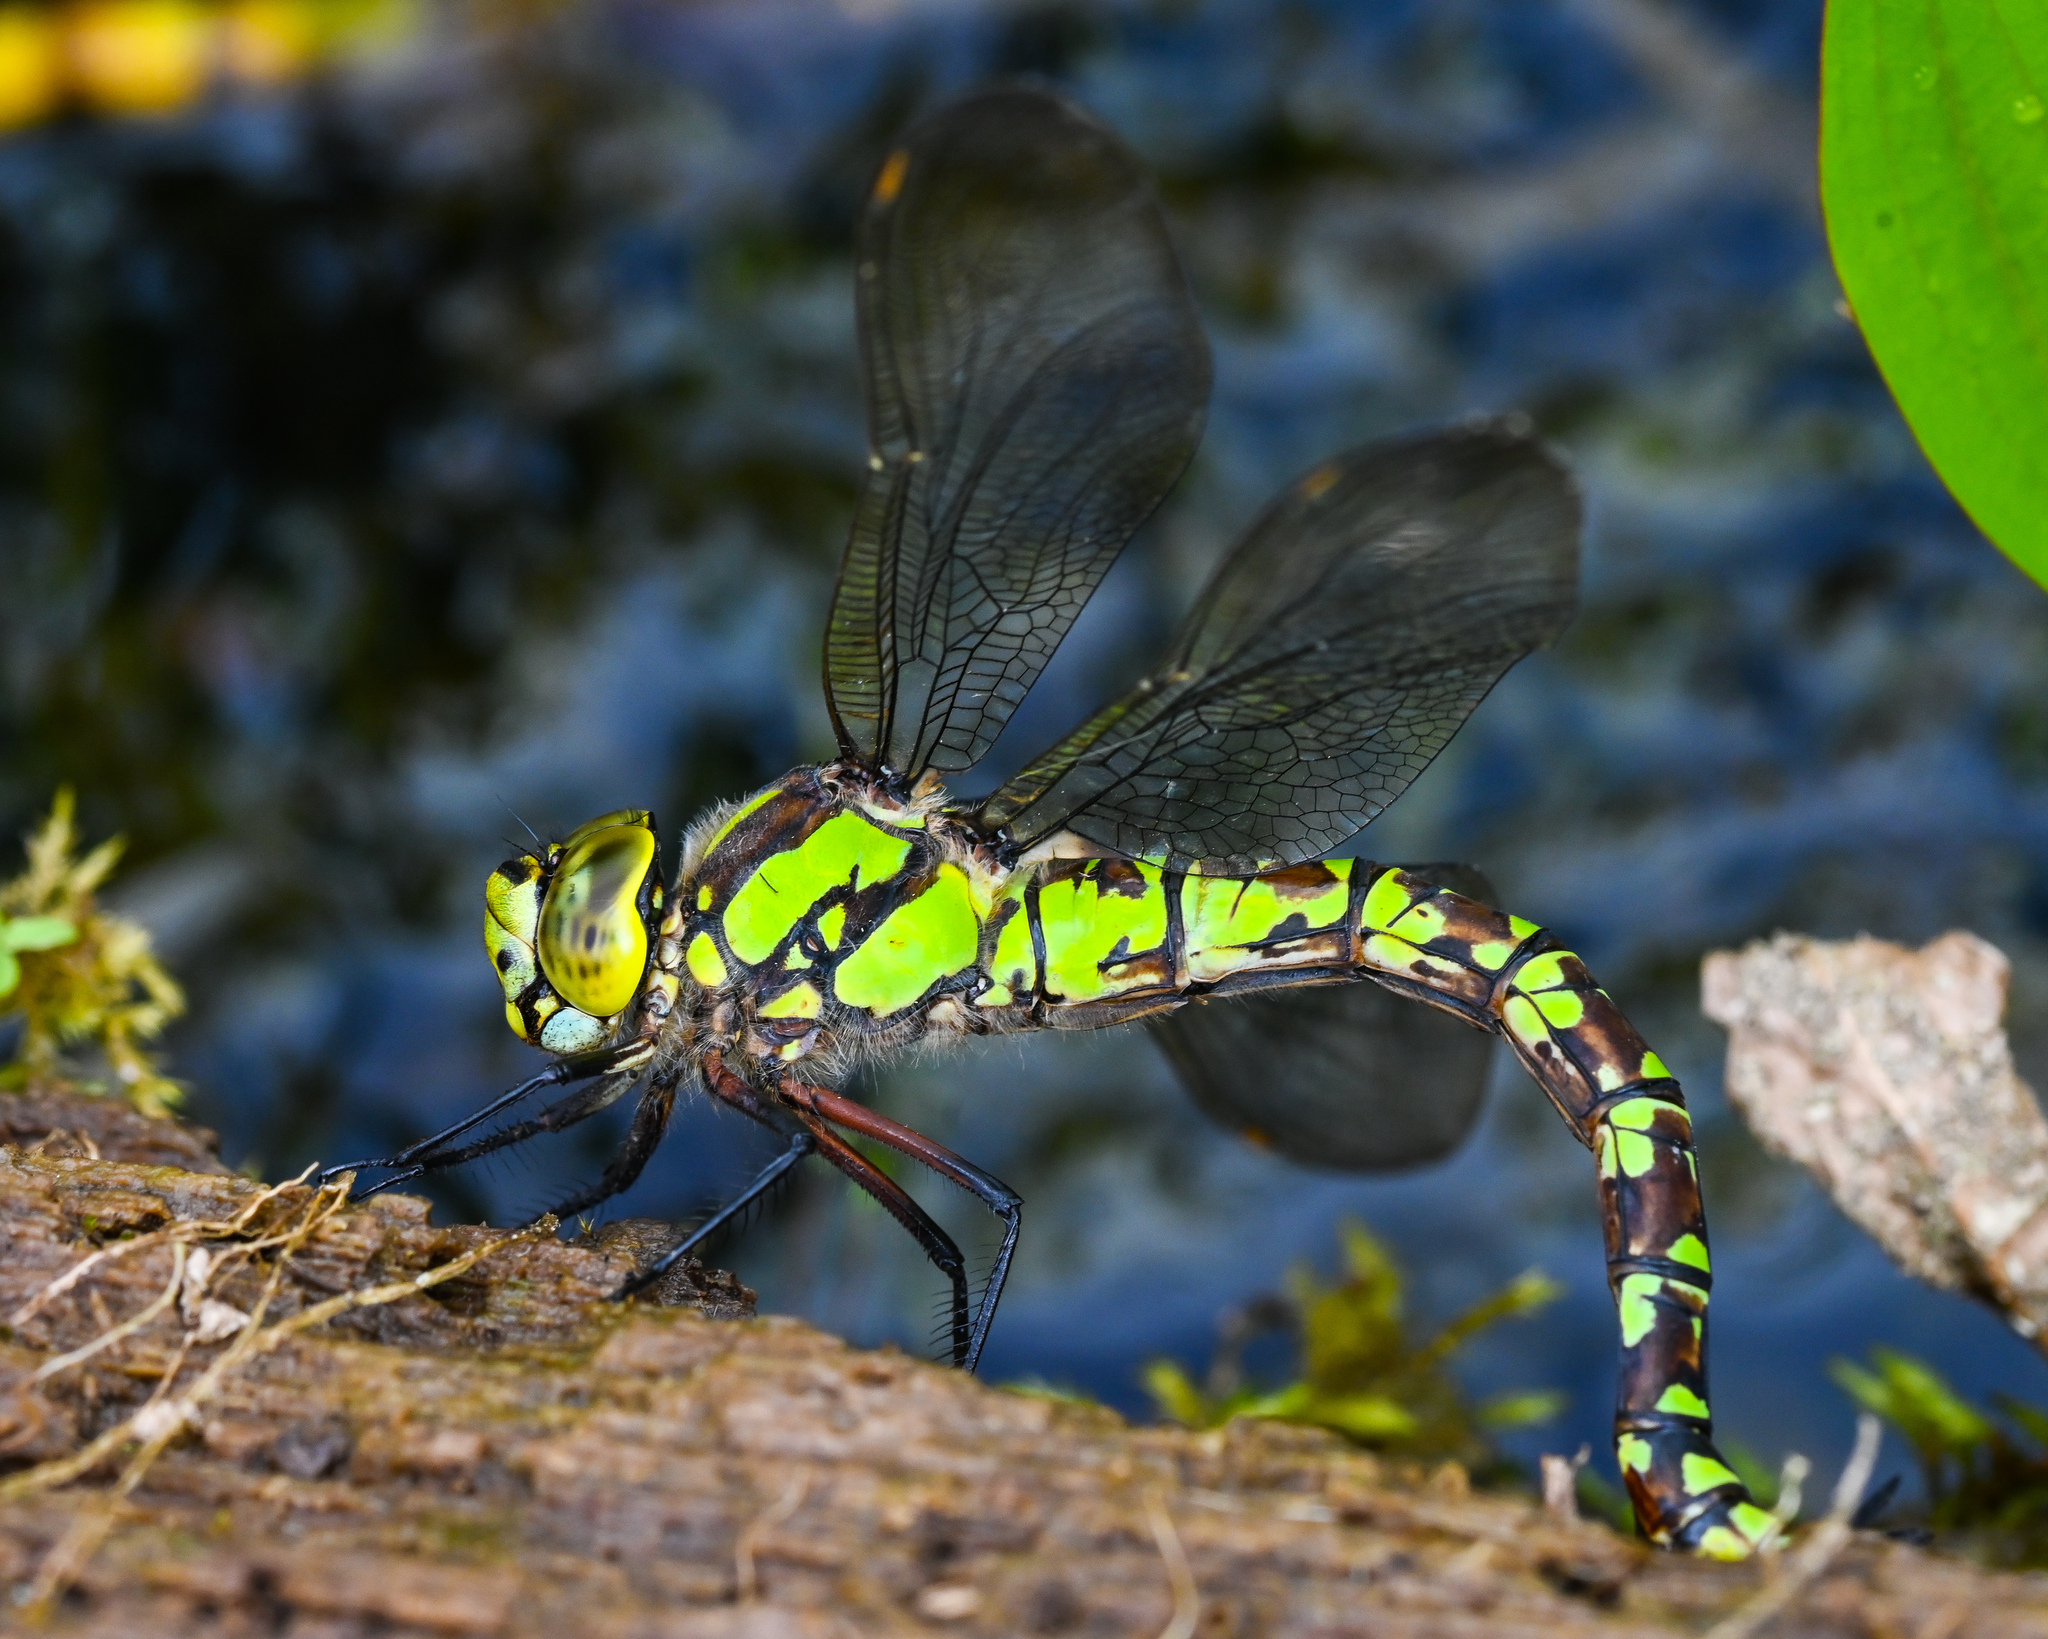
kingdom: Animalia
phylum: Arthropoda
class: Insecta
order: Odonata
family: Aeshnidae
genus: Aeshna
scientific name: Aeshna cyanea
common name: Southern hawker
